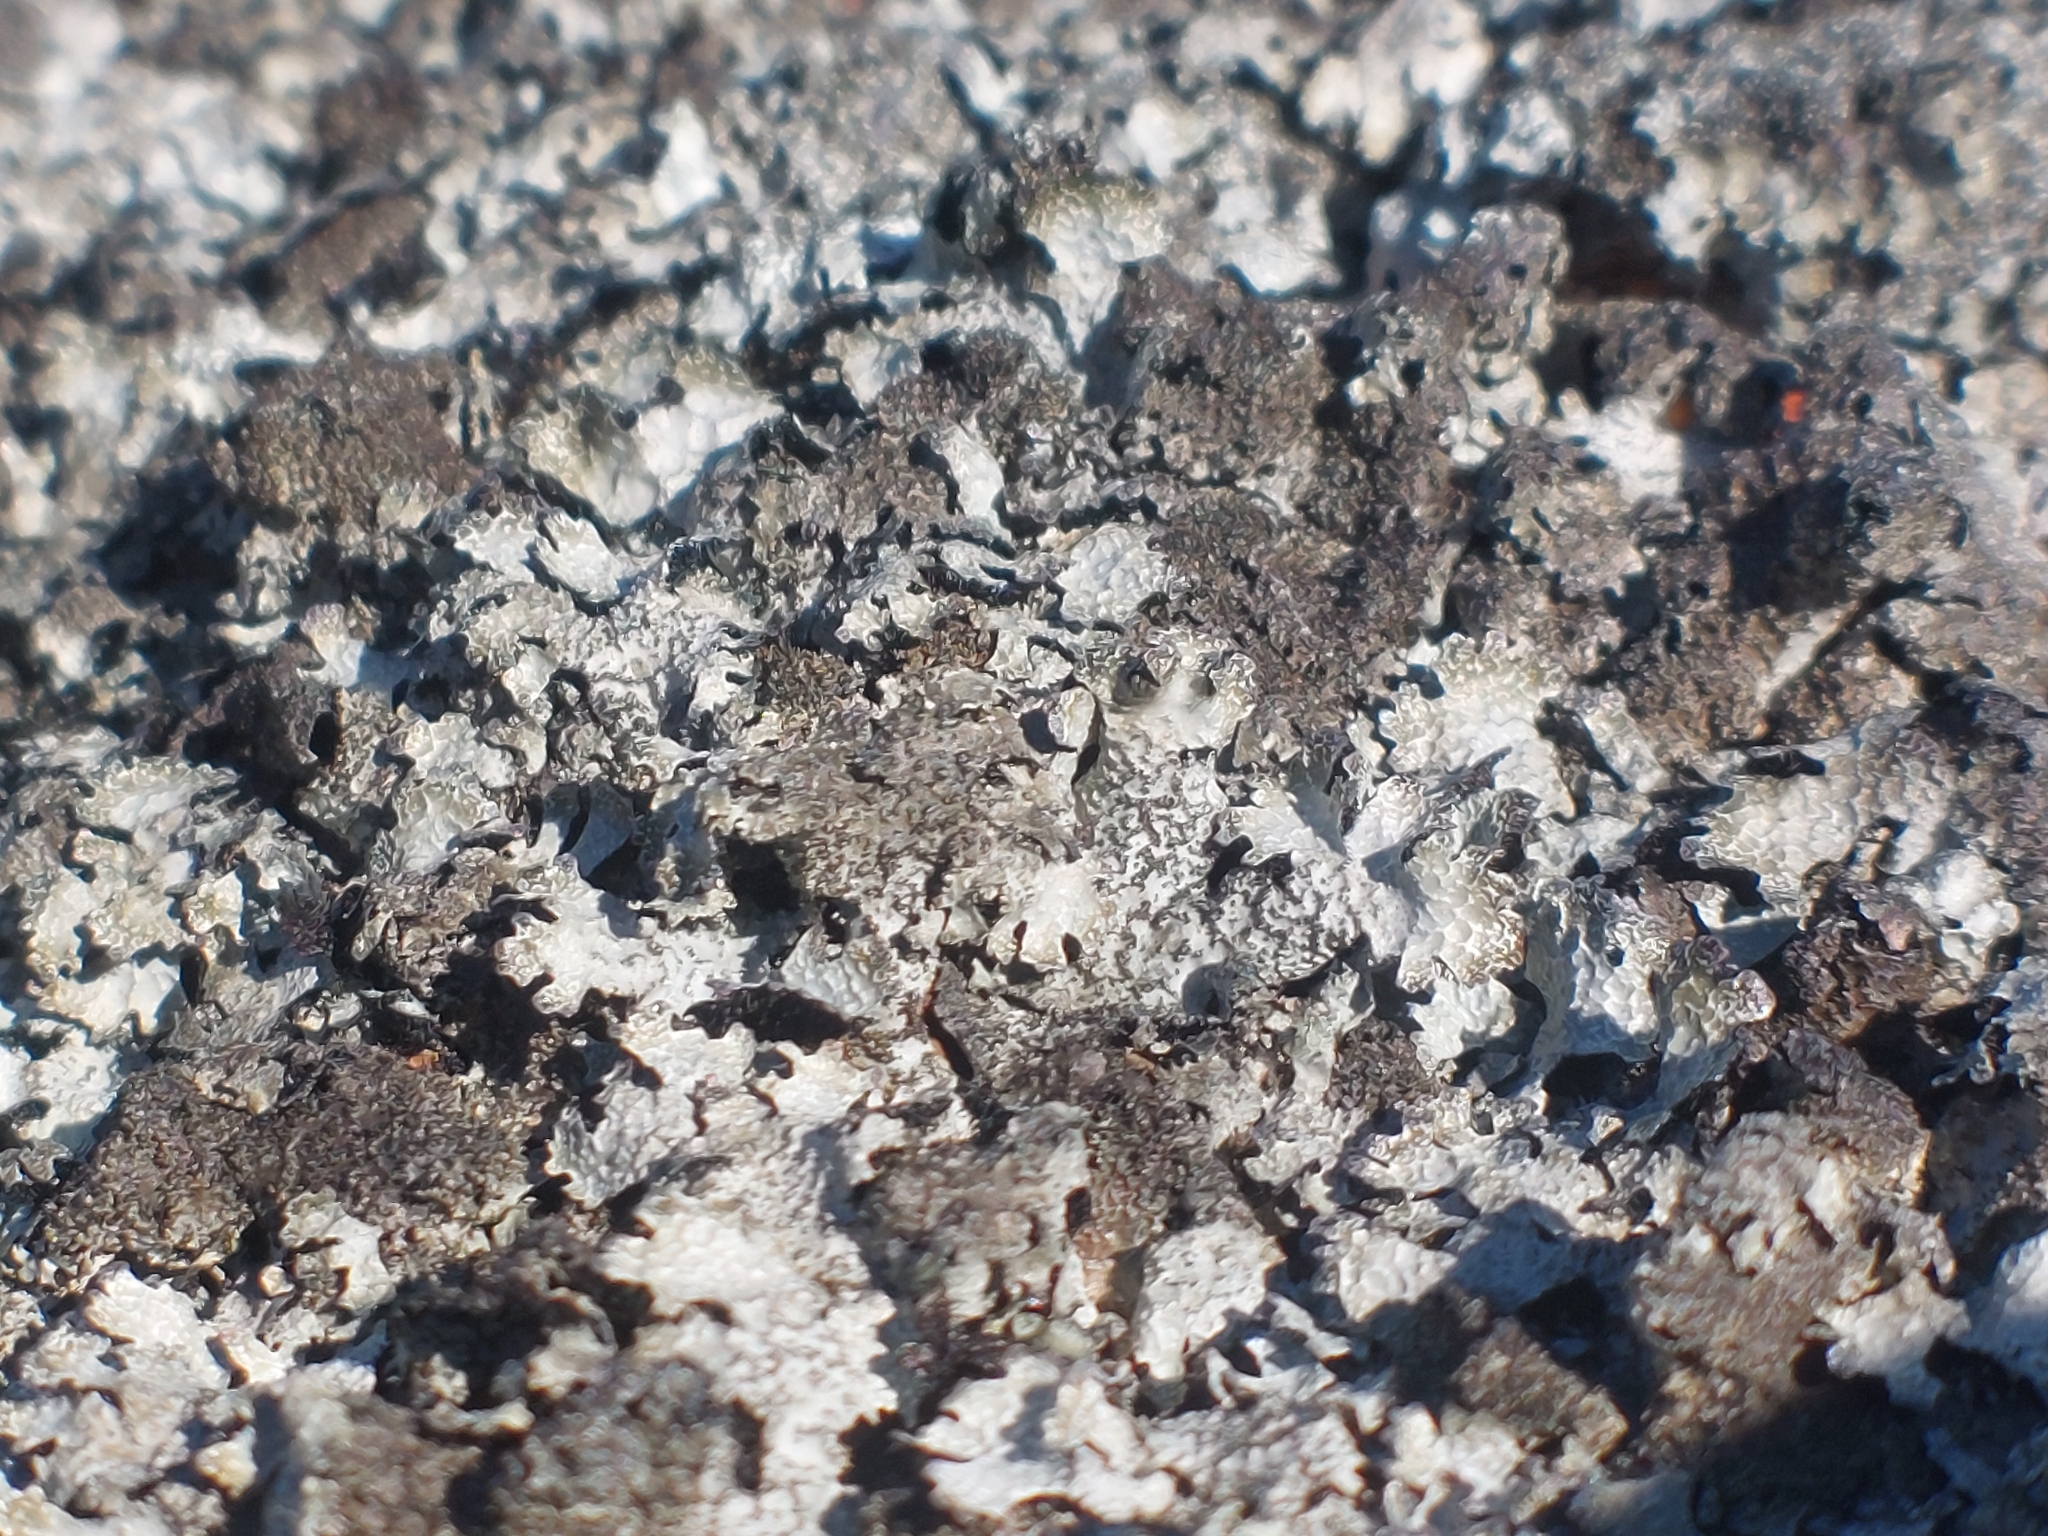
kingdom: Fungi
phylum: Ascomycota
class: Lecanoromycetes
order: Lecanorales
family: Parmeliaceae
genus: Parmelia
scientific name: Parmelia saxatilis
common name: Salted shield lichen
